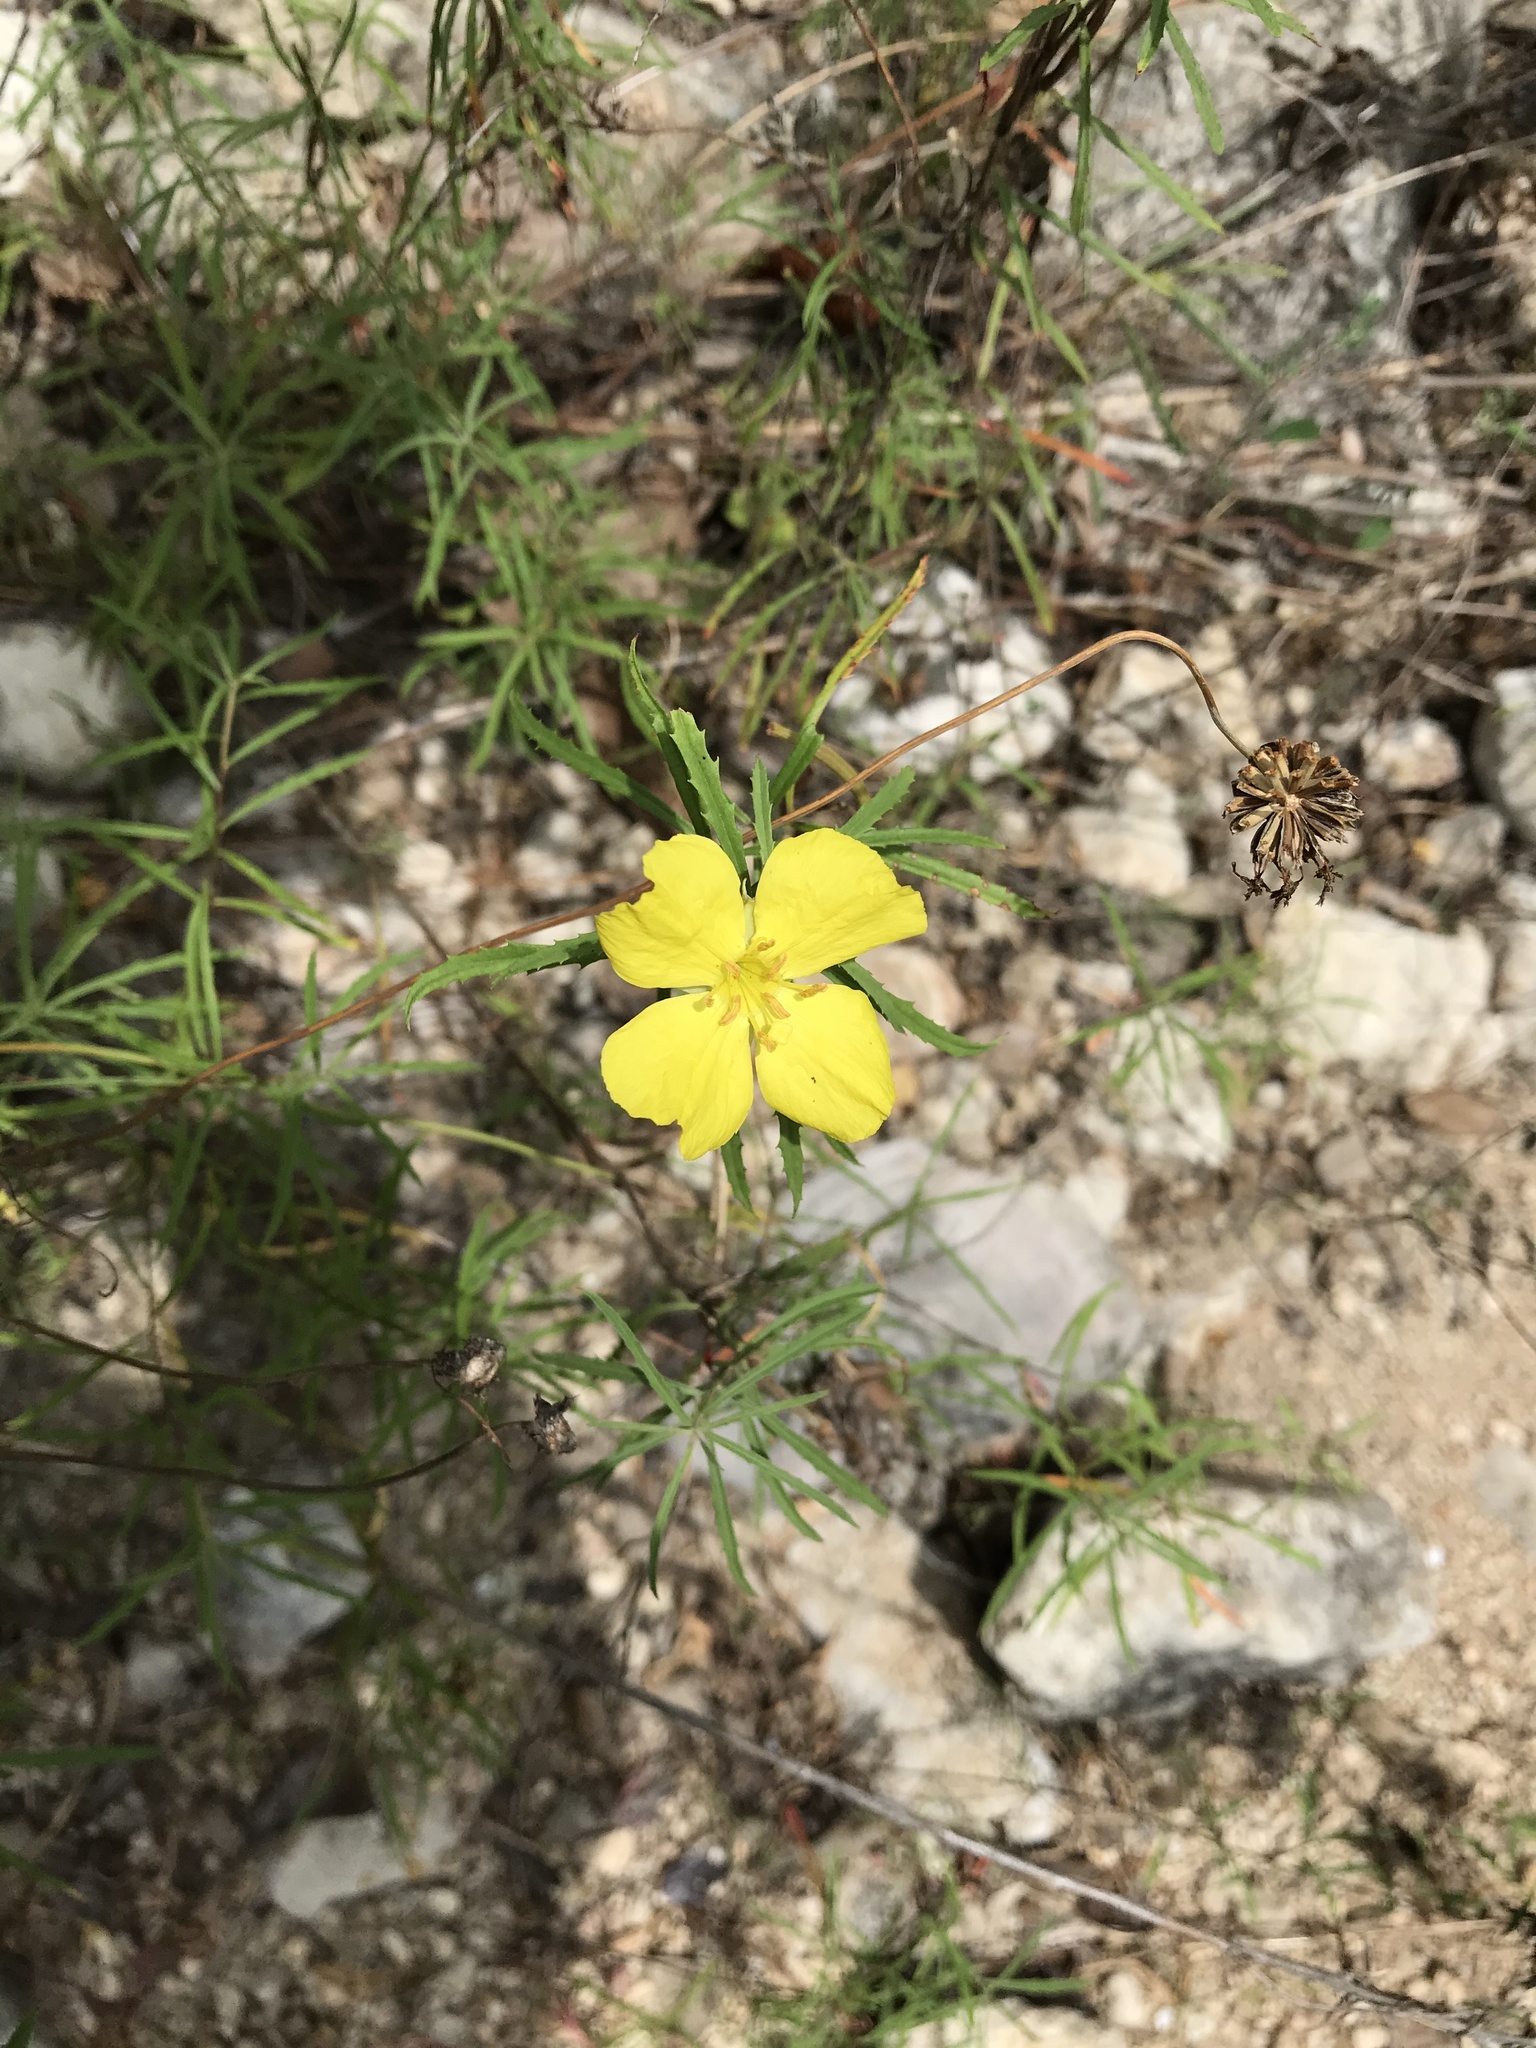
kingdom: Plantae
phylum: Tracheophyta
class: Magnoliopsida
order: Myrtales
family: Onagraceae
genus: Oenothera
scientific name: Oenothera
